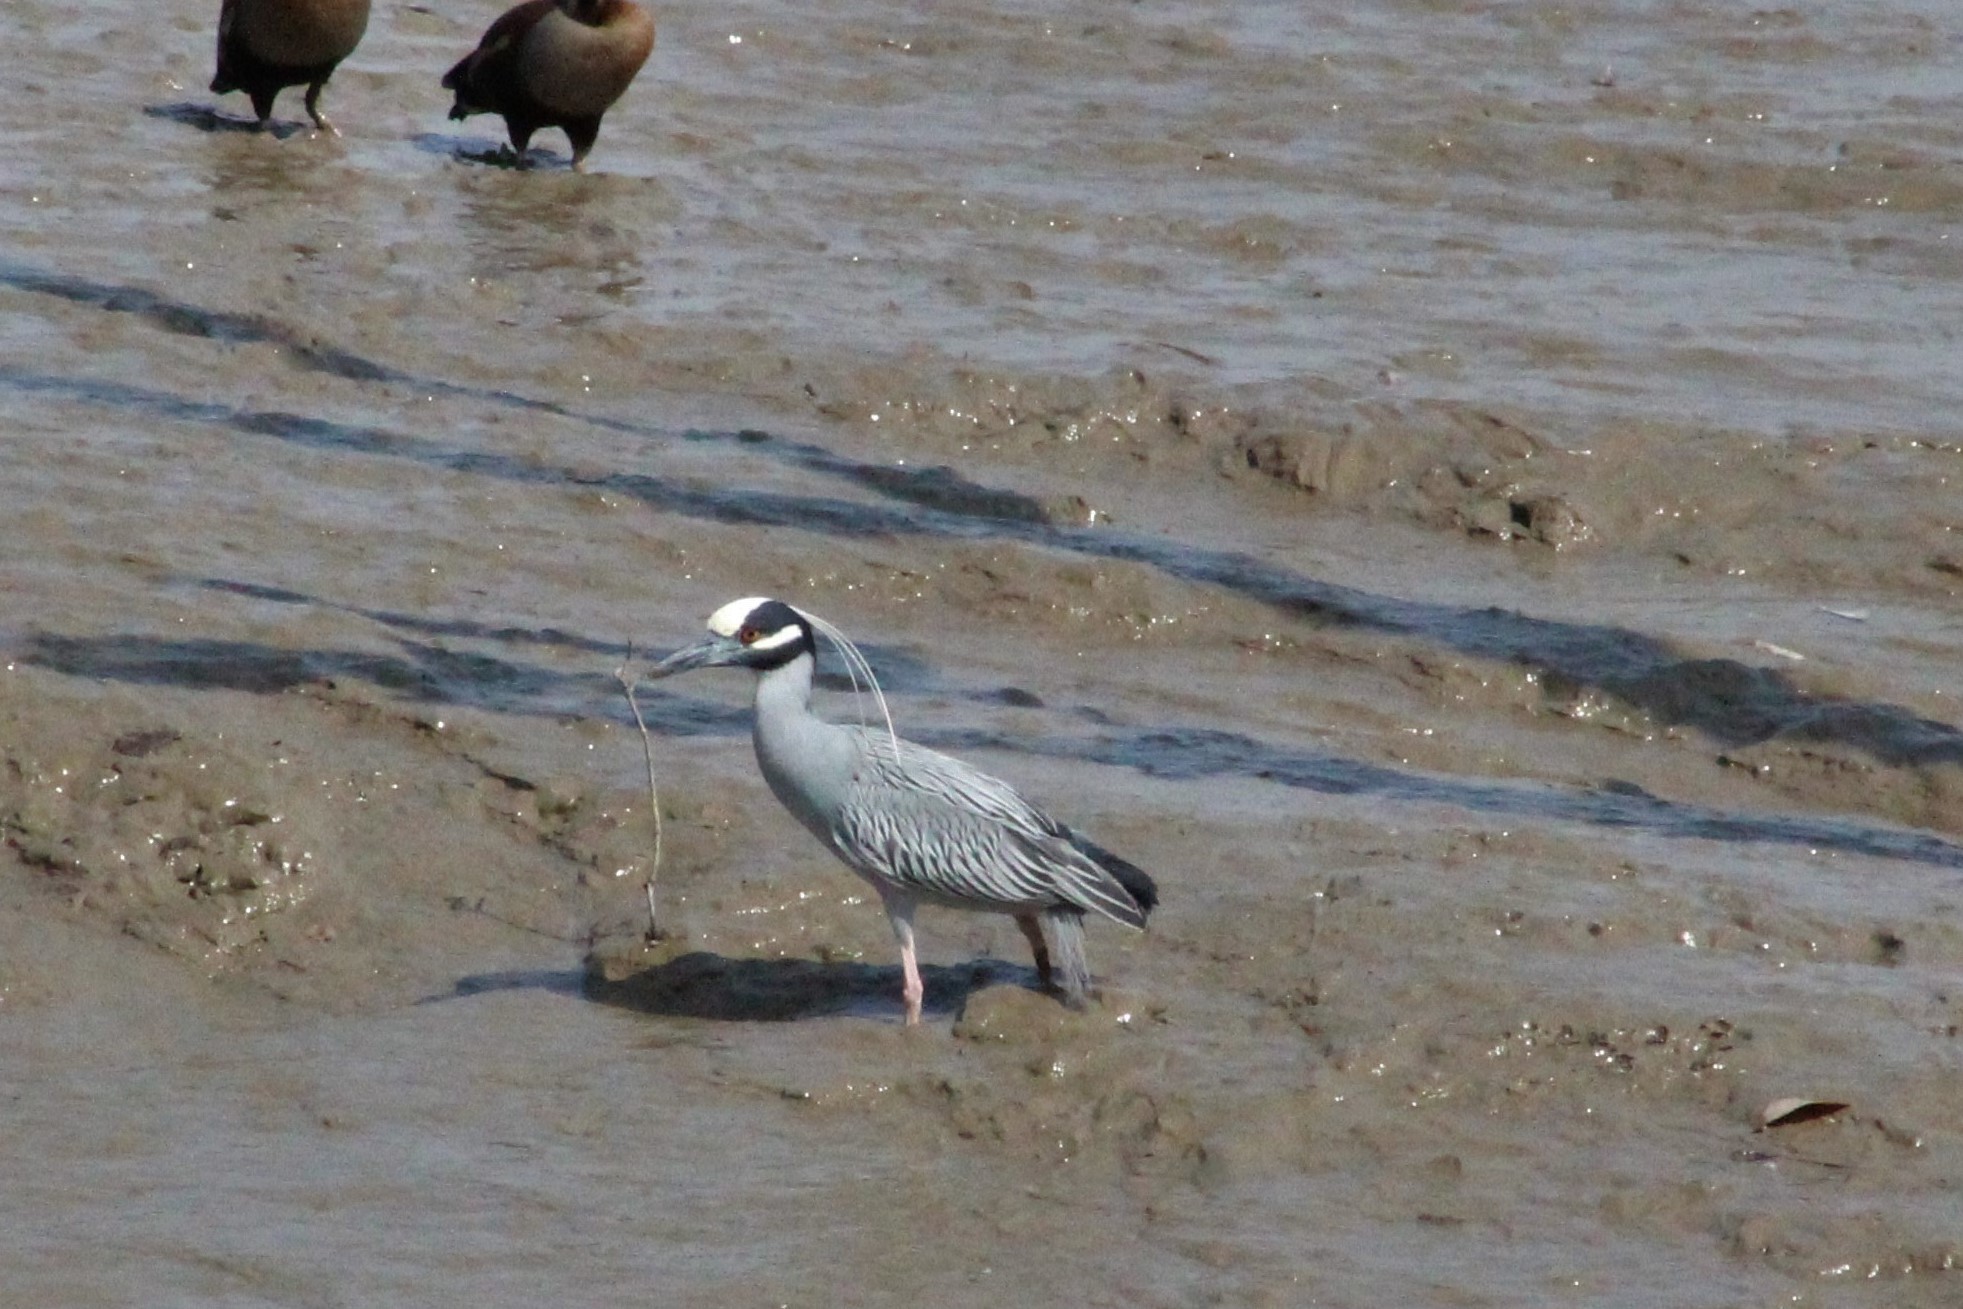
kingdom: Animalia
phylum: Chordata
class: Aves
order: Pelecaniformes
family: Ardeidae
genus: Nyctanassa
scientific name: Nyctanassa violacea
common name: Yellow-crowned night heron
